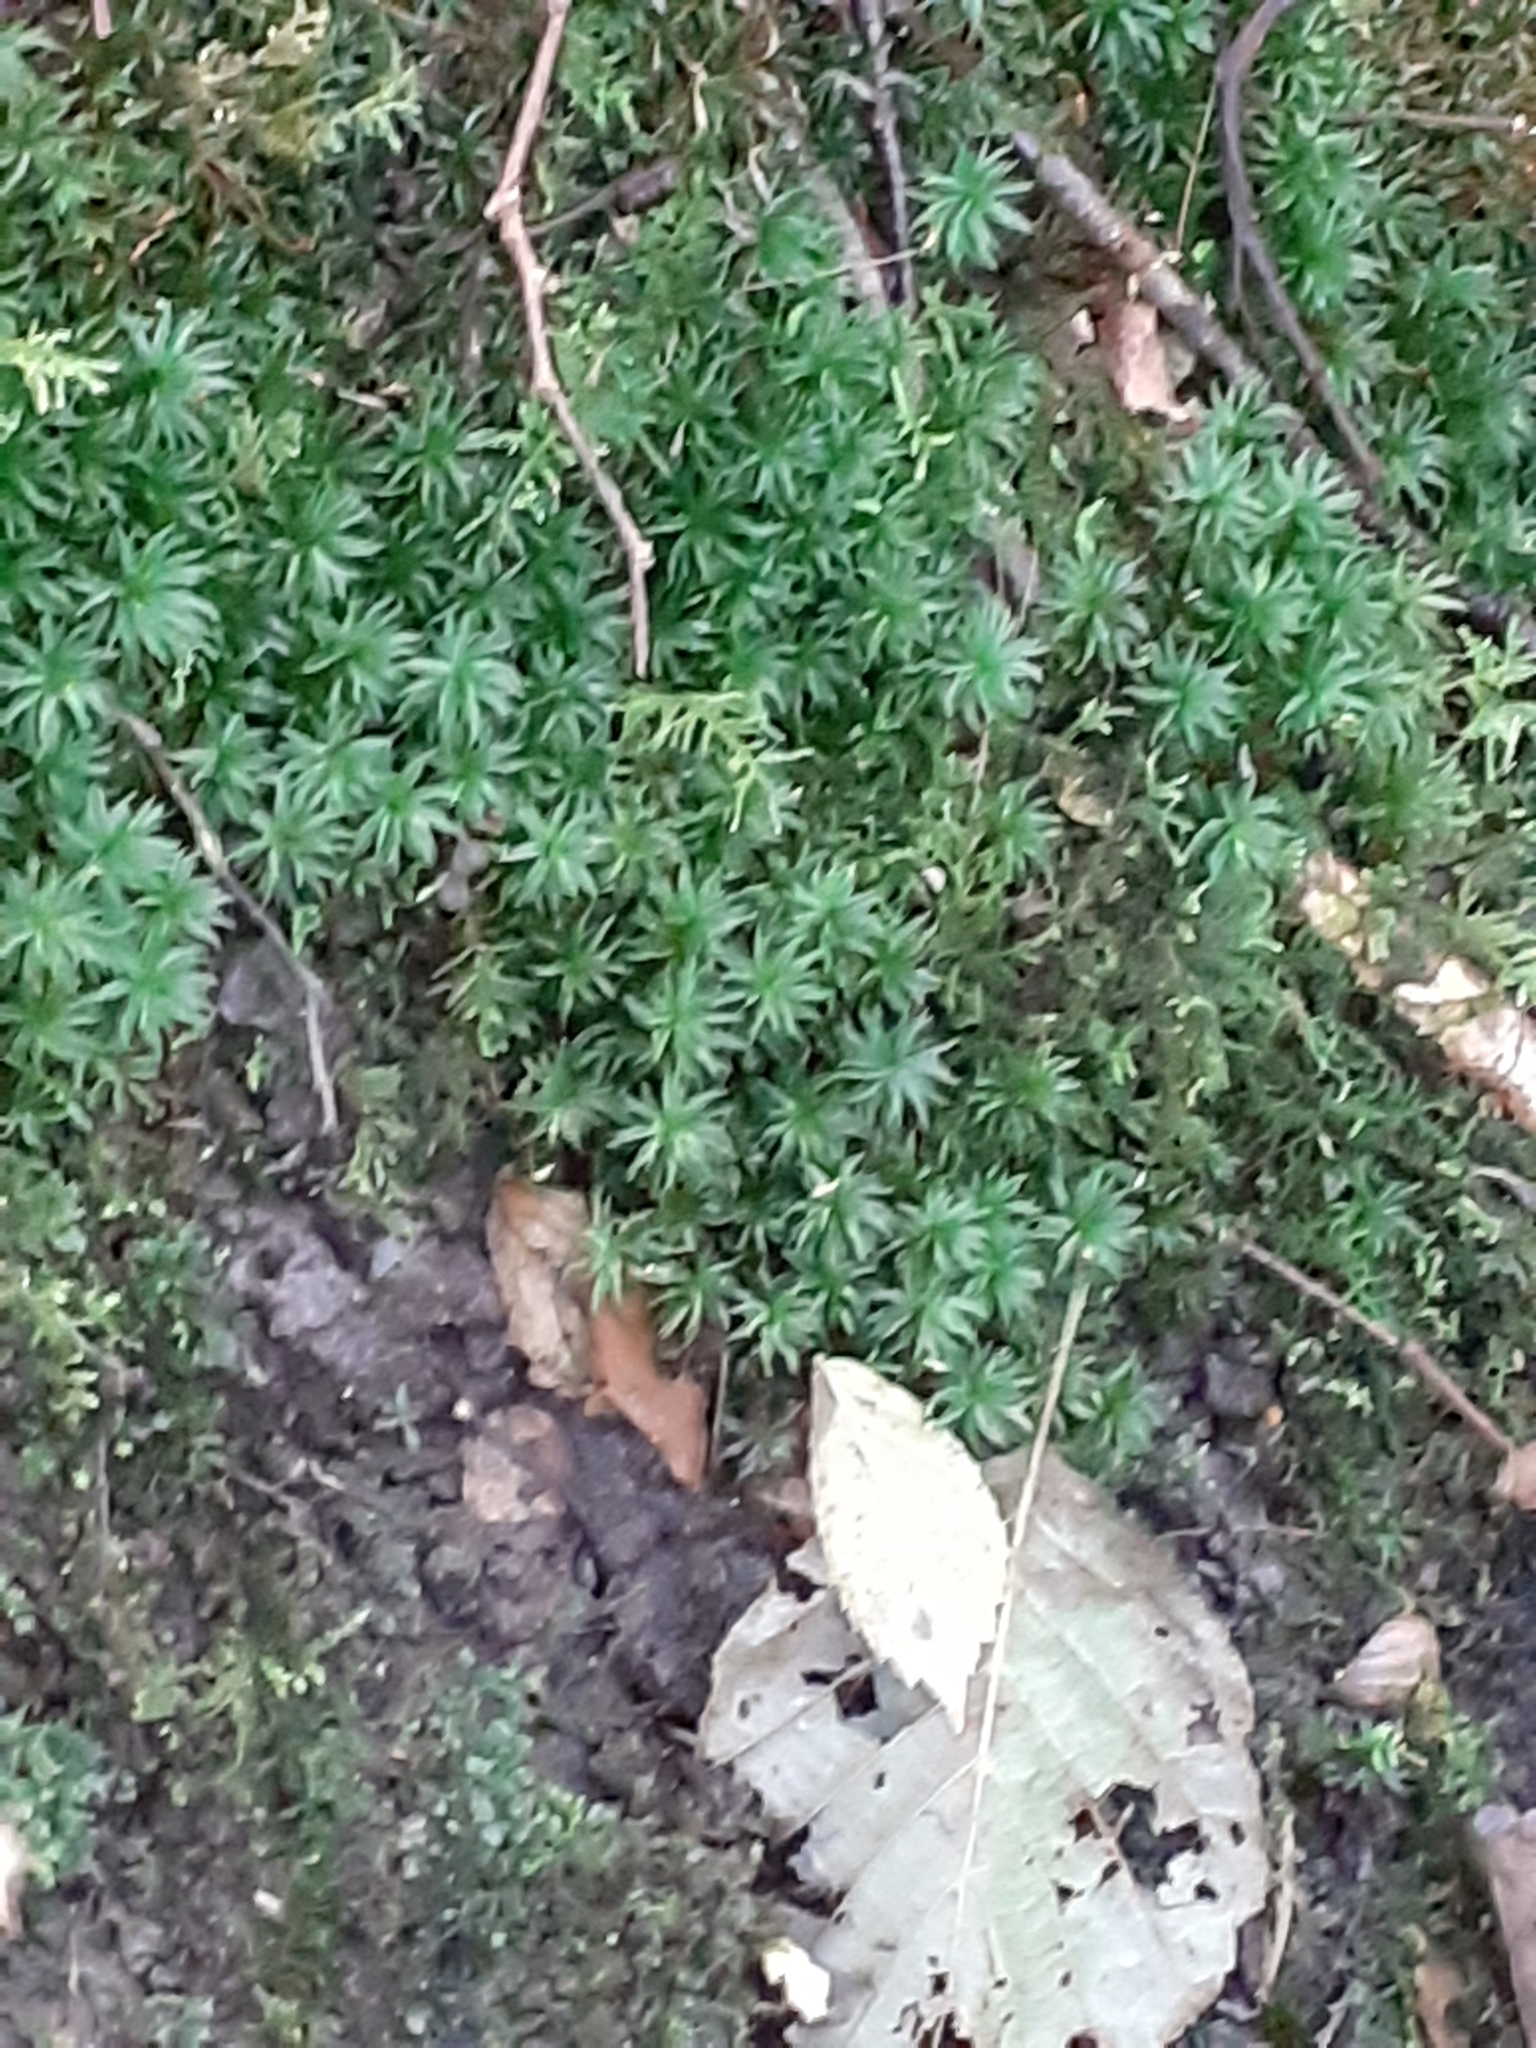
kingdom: Plantae
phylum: Bryophyta
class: Polytrichopsida
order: Polytrichales
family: Polytrichaceae
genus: Atrichum
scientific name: Atrichum undulatum
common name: Common smoothcap
